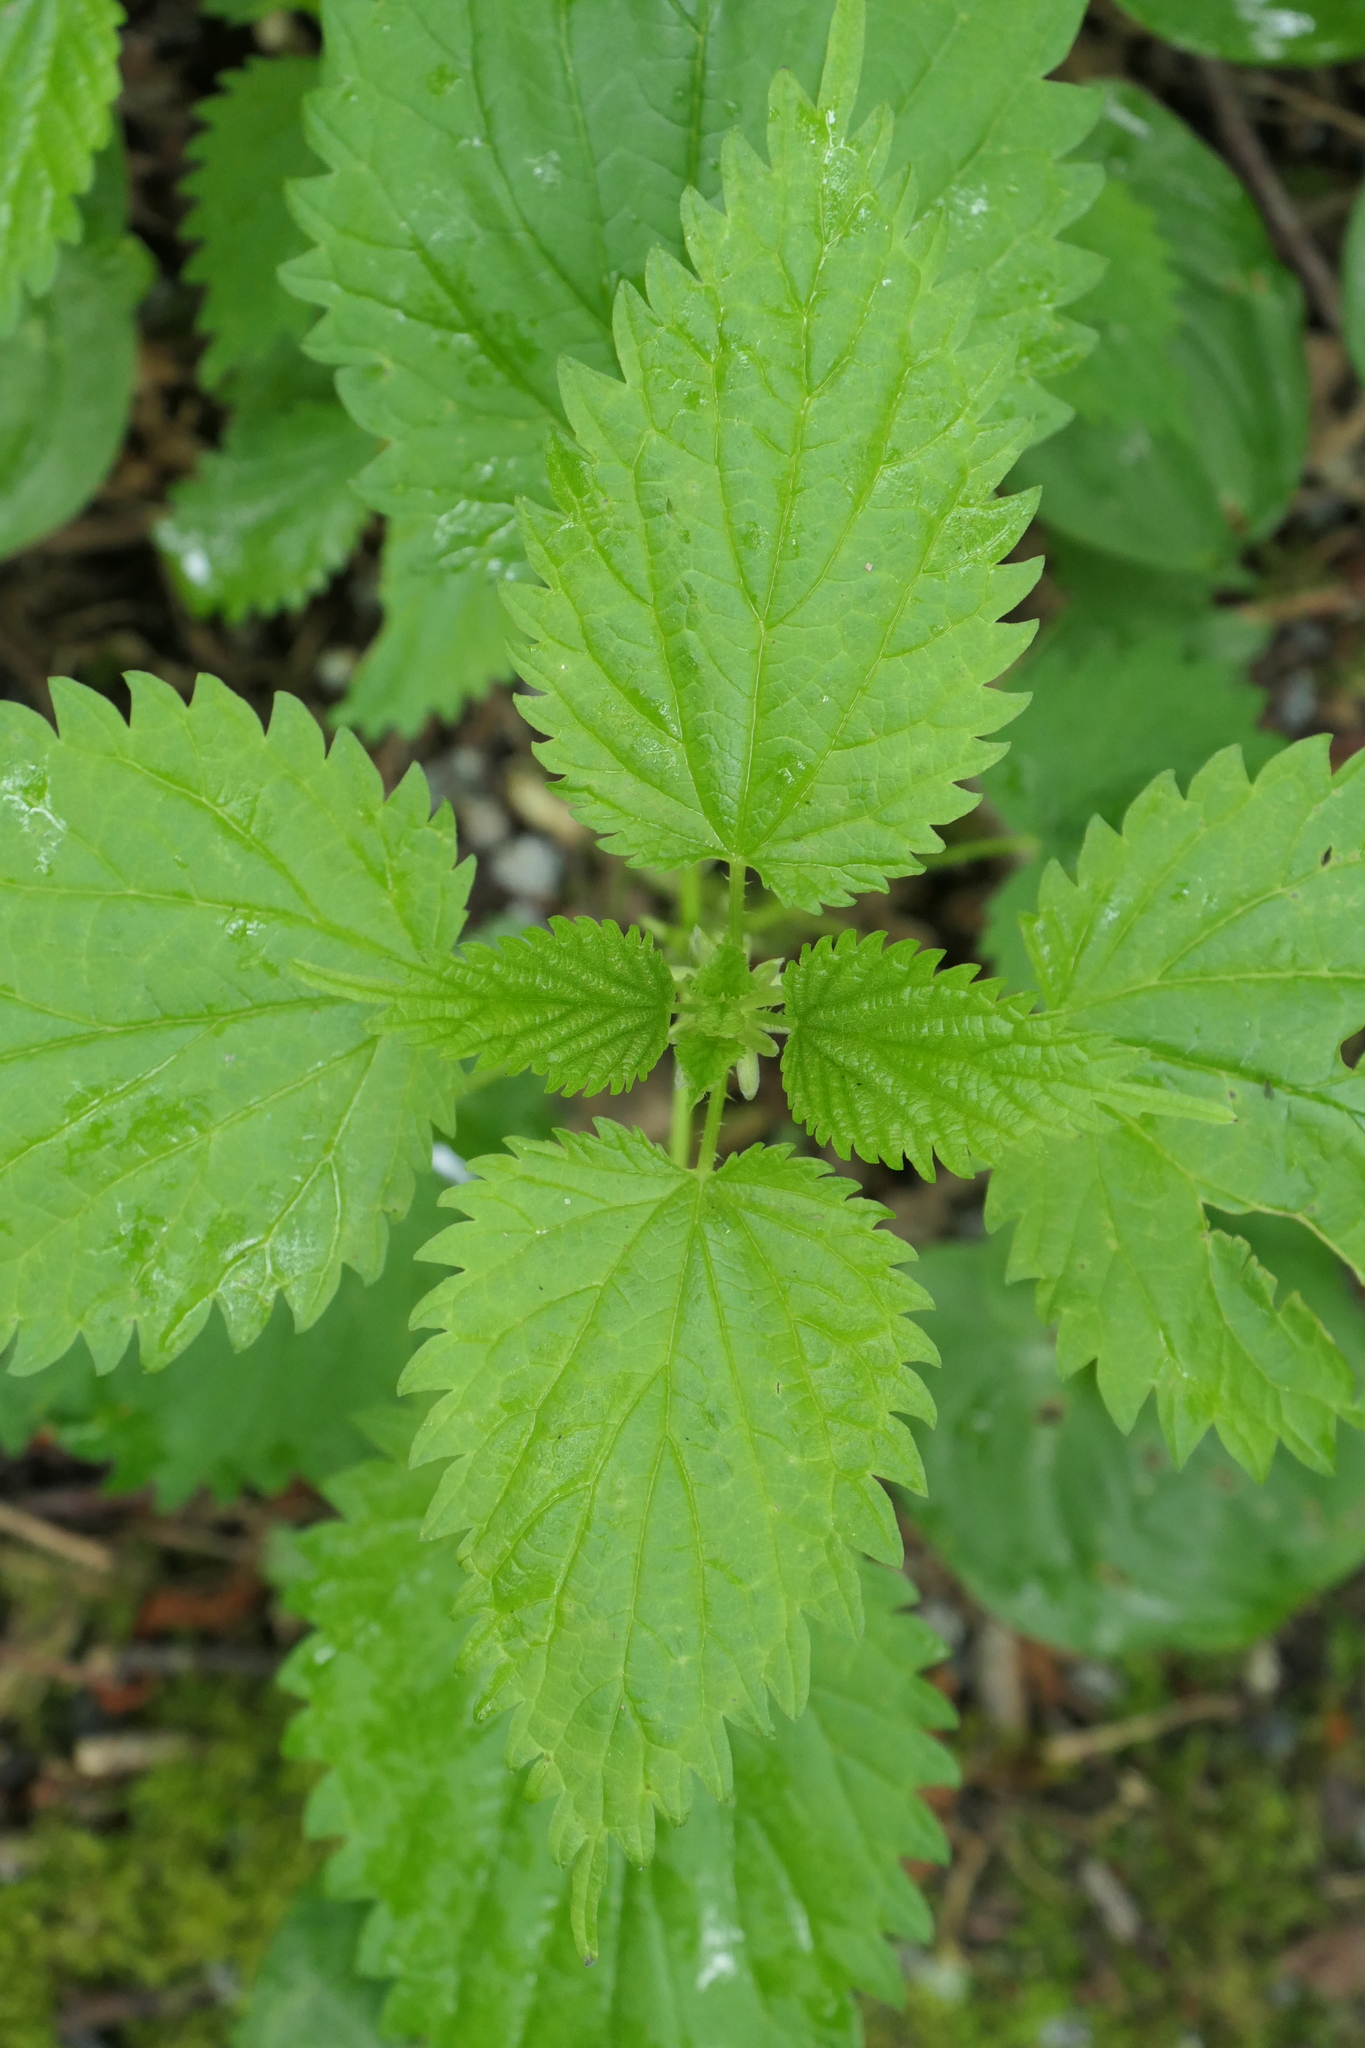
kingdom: Plantae
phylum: Tracheophyta
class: Magnoliopsida
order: Rosales
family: Urticaceae
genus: Urtica
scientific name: Urtica dioica
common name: Common nettle
